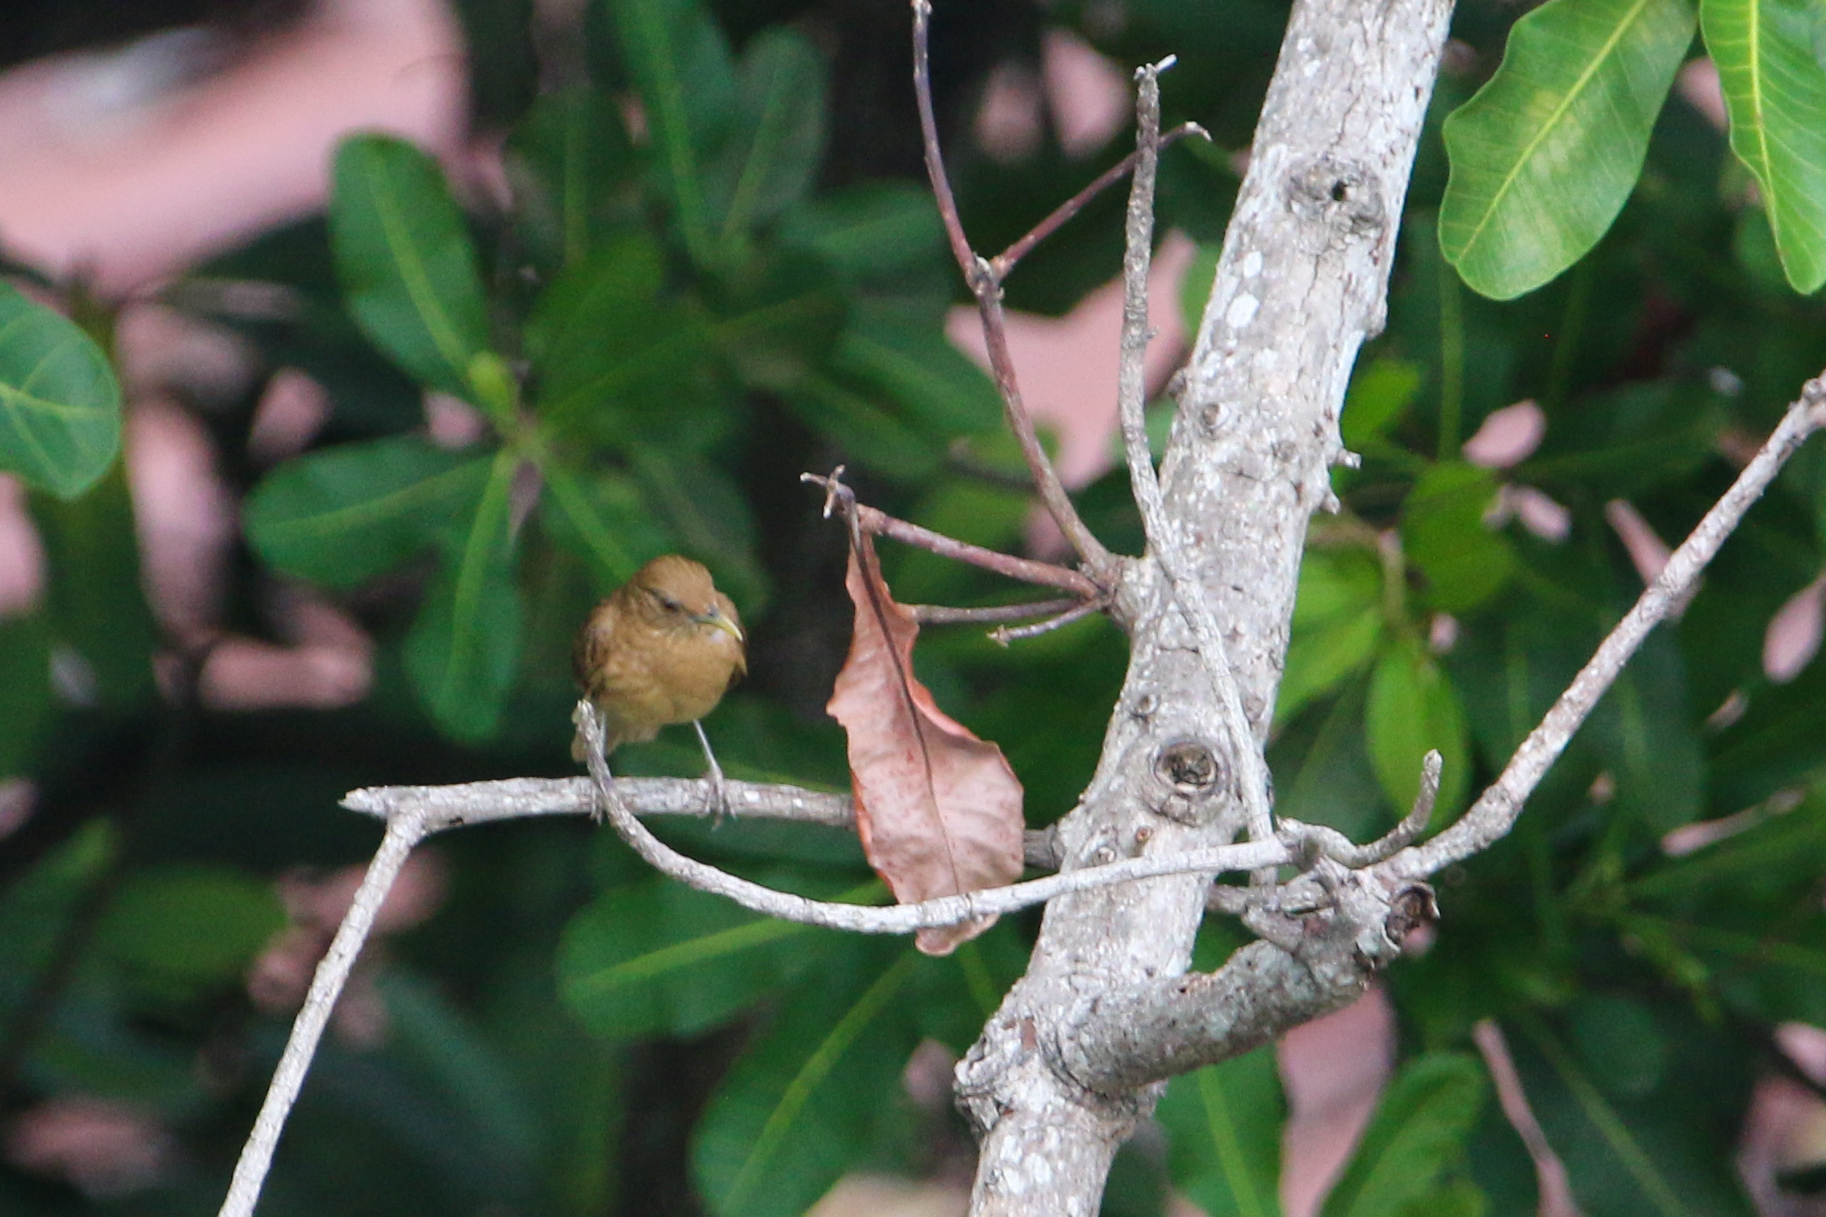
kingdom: Animalia
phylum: Chordata
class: Aves
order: Passeriformes
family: Turdidae
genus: Turdus
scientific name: Turdus grayi
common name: Clay-colored thrush
